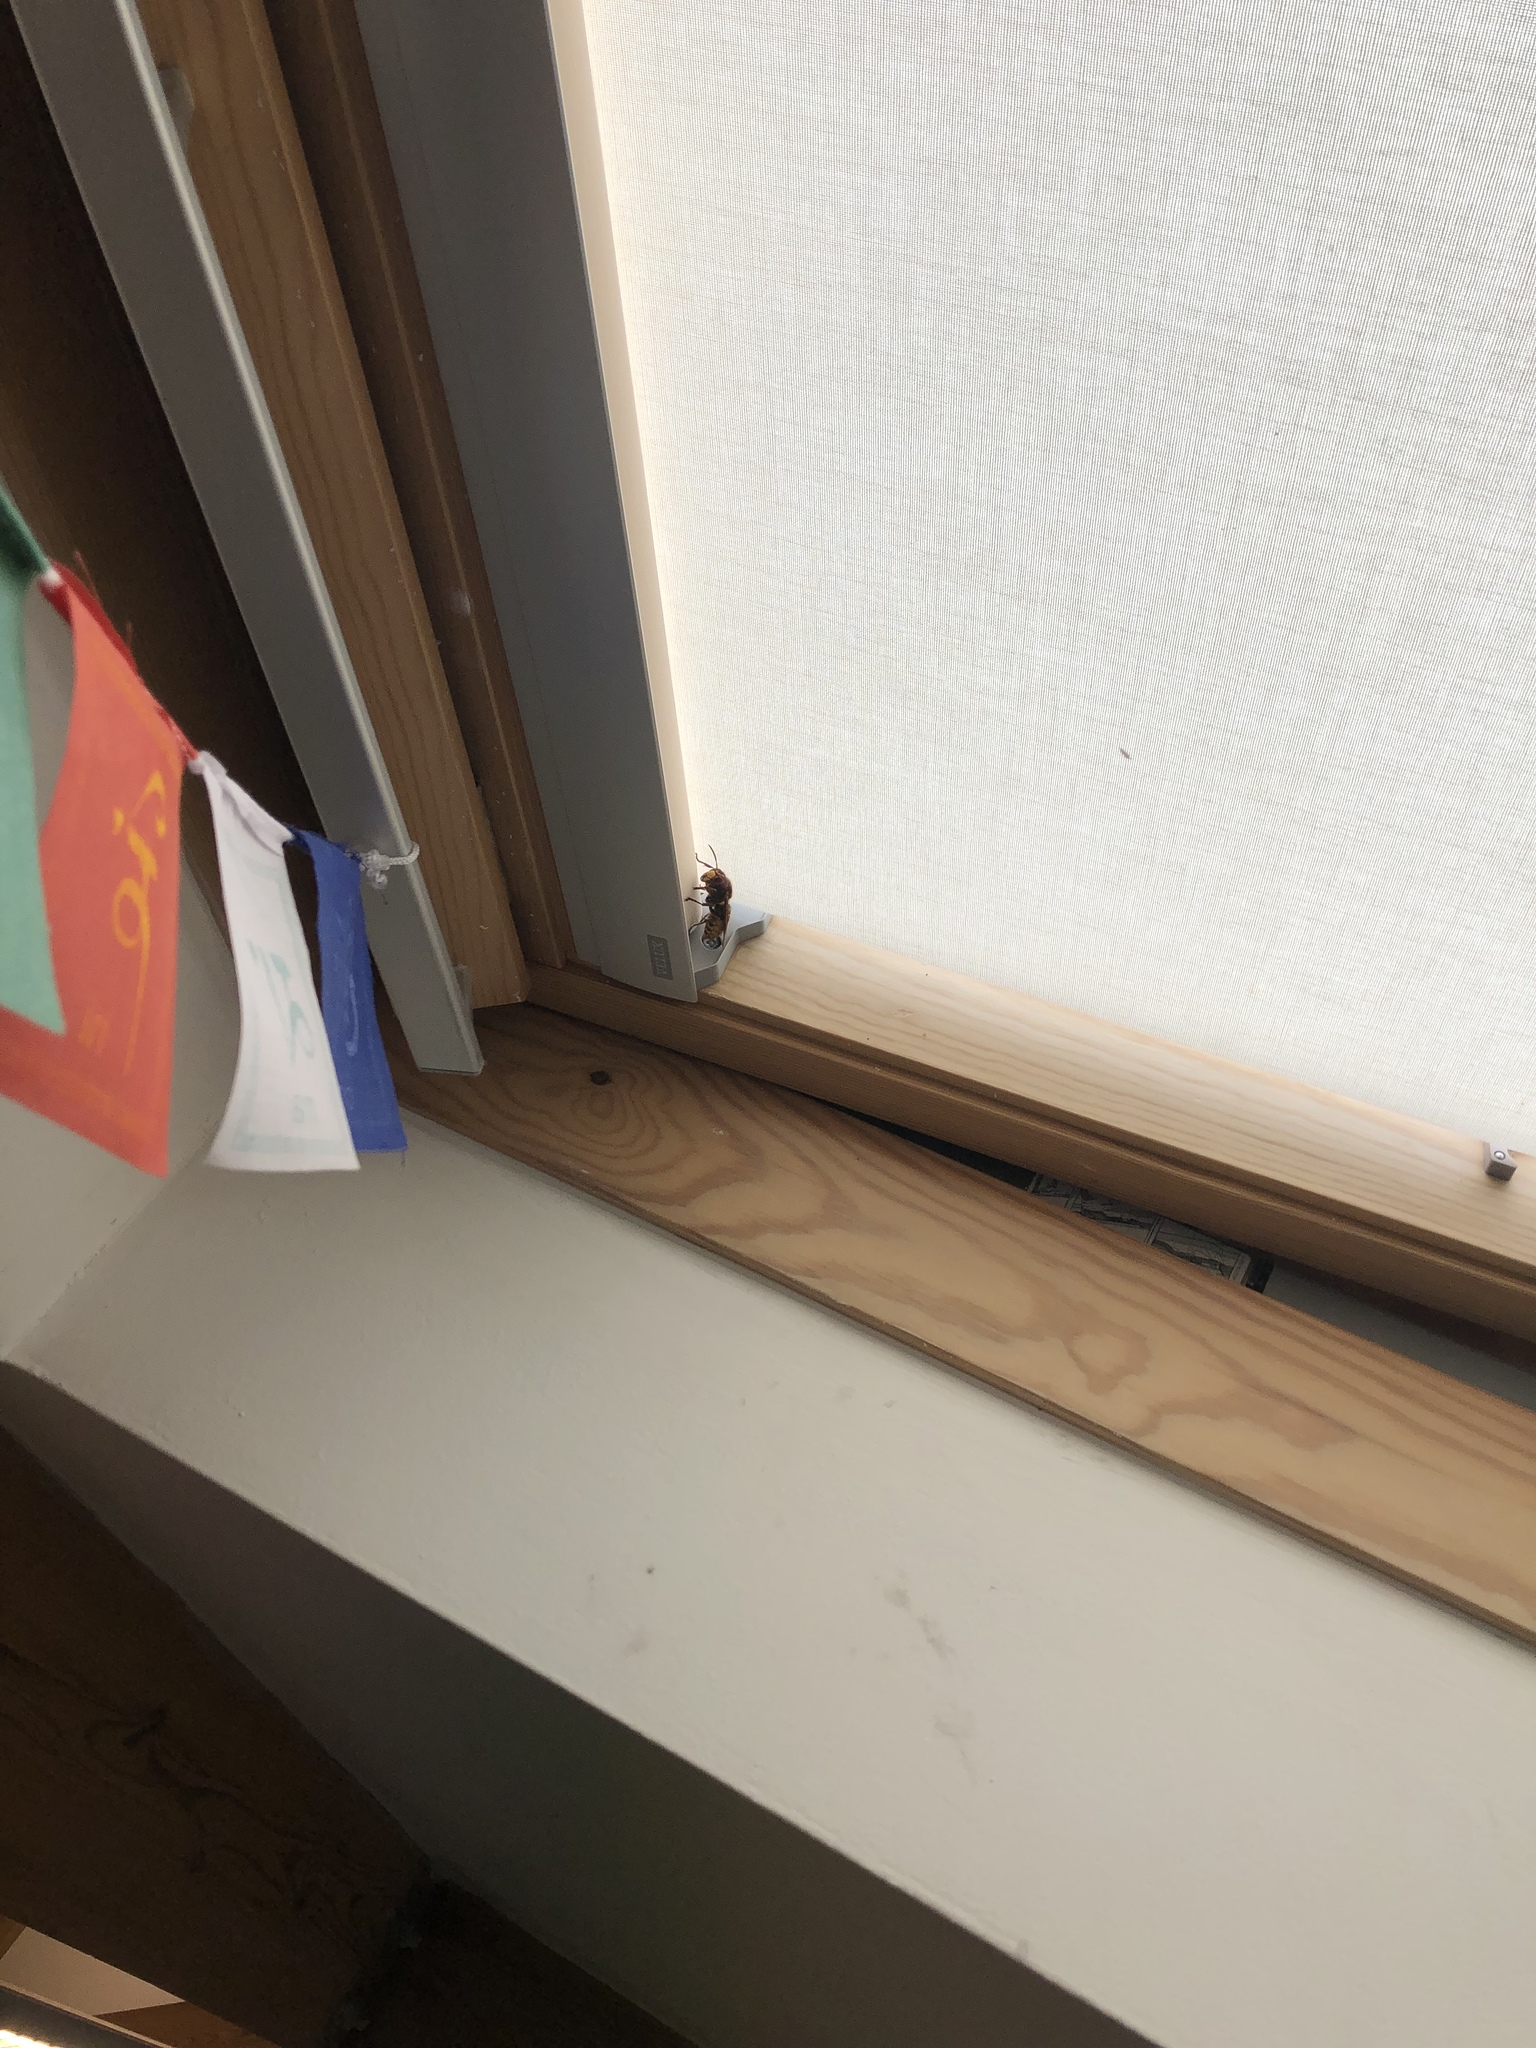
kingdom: Animalia
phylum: Arthropoda
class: Insecta
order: Hymenoptera
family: Vespidae
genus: Vespa
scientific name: Vespa crabro
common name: Hornet
